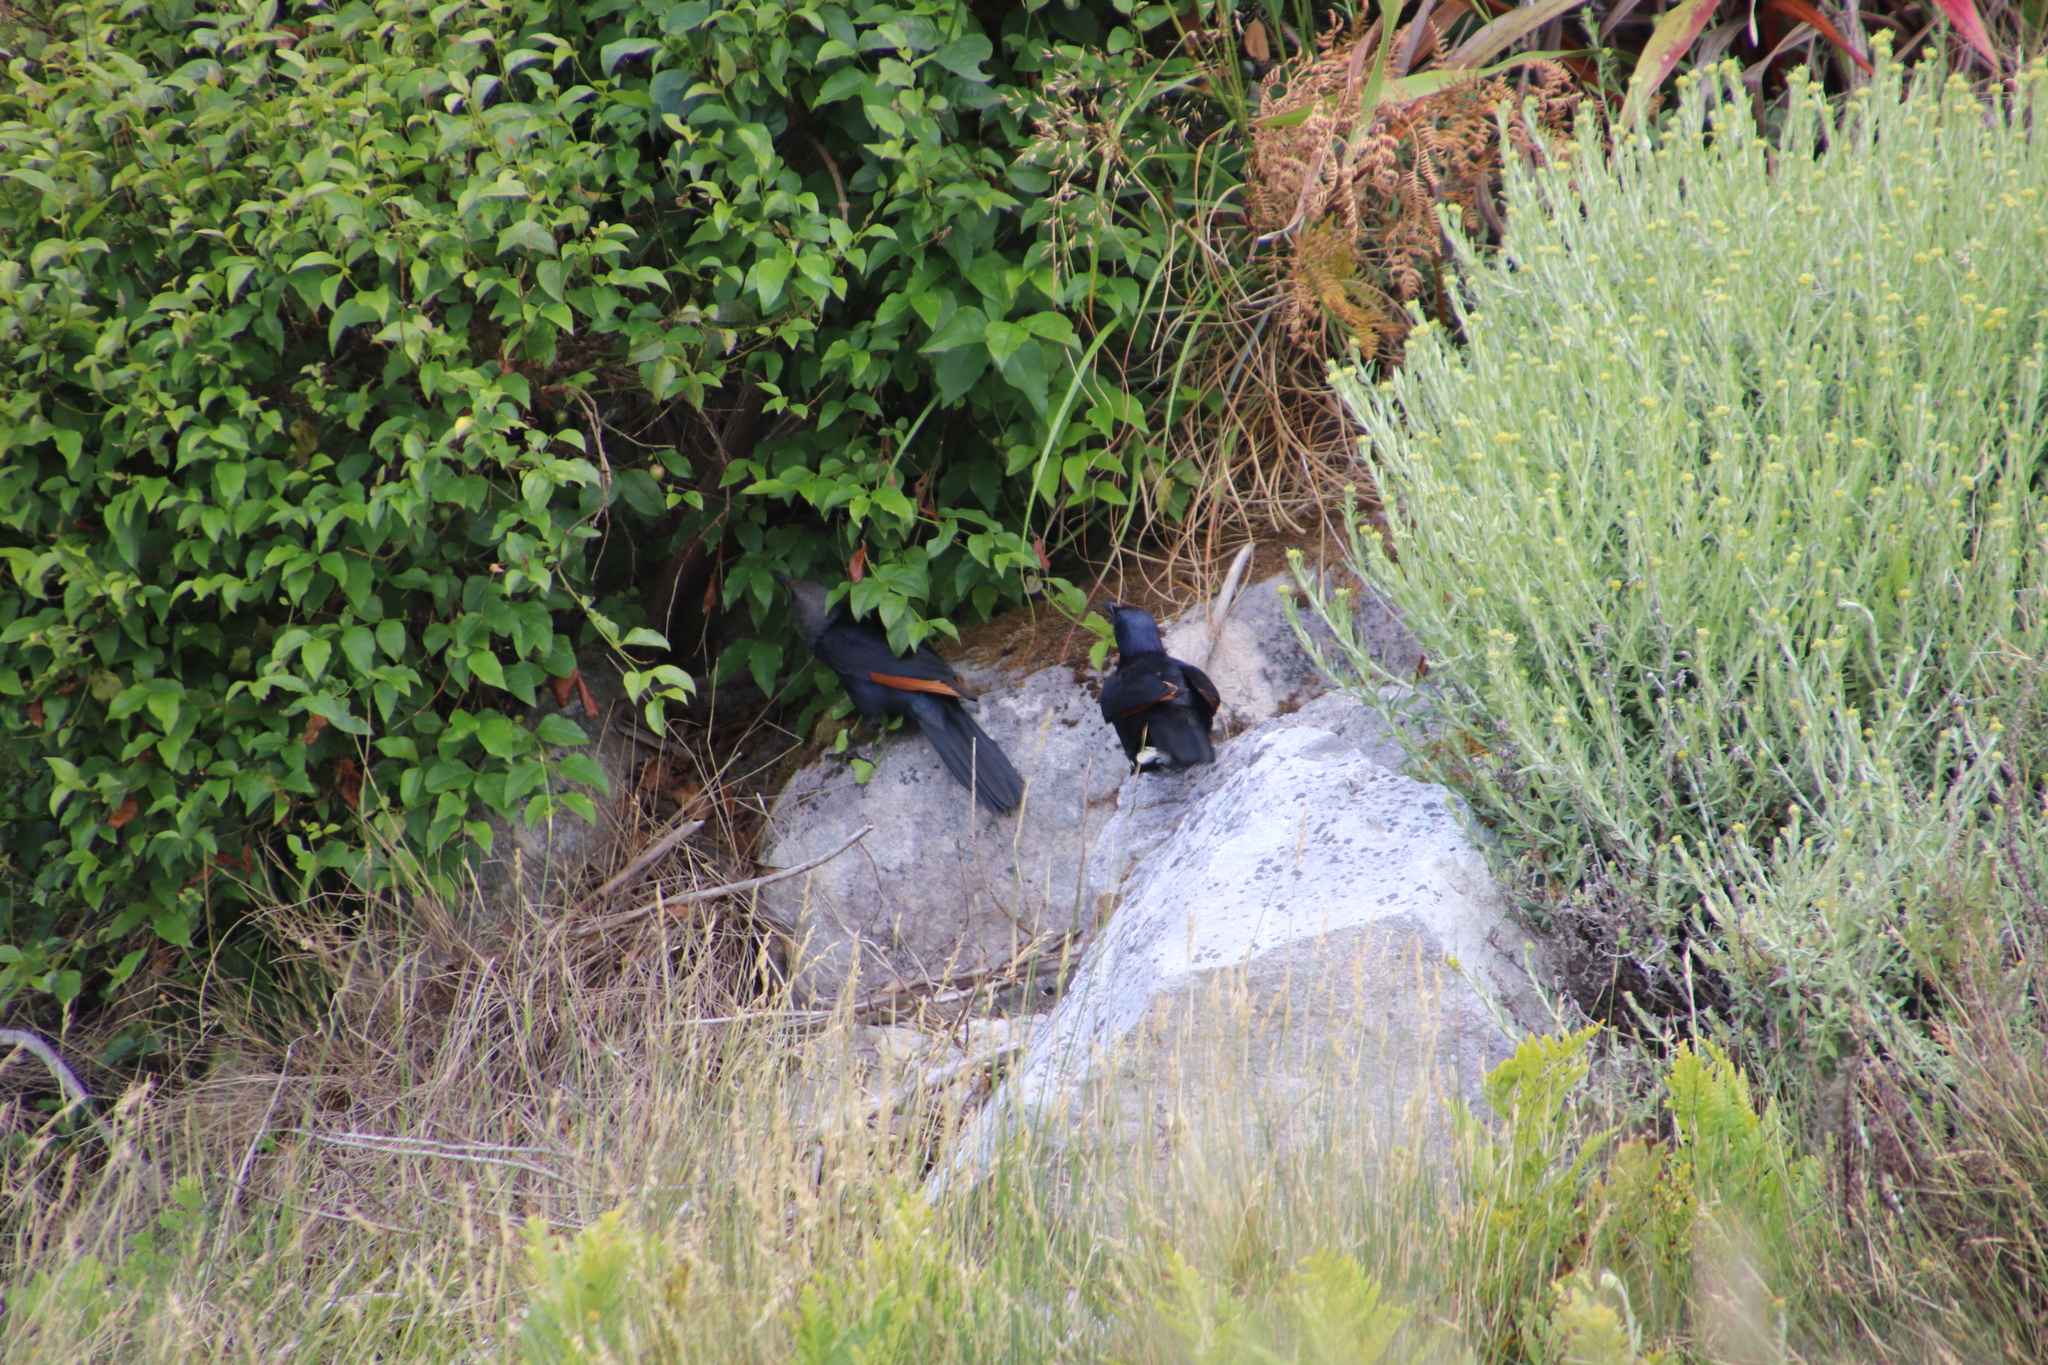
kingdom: Animalia
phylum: Chordata
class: Aves
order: Passeriformes
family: Sturnidae
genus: Onychognathus
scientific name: Onychognathus morio
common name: Red-winged starling
